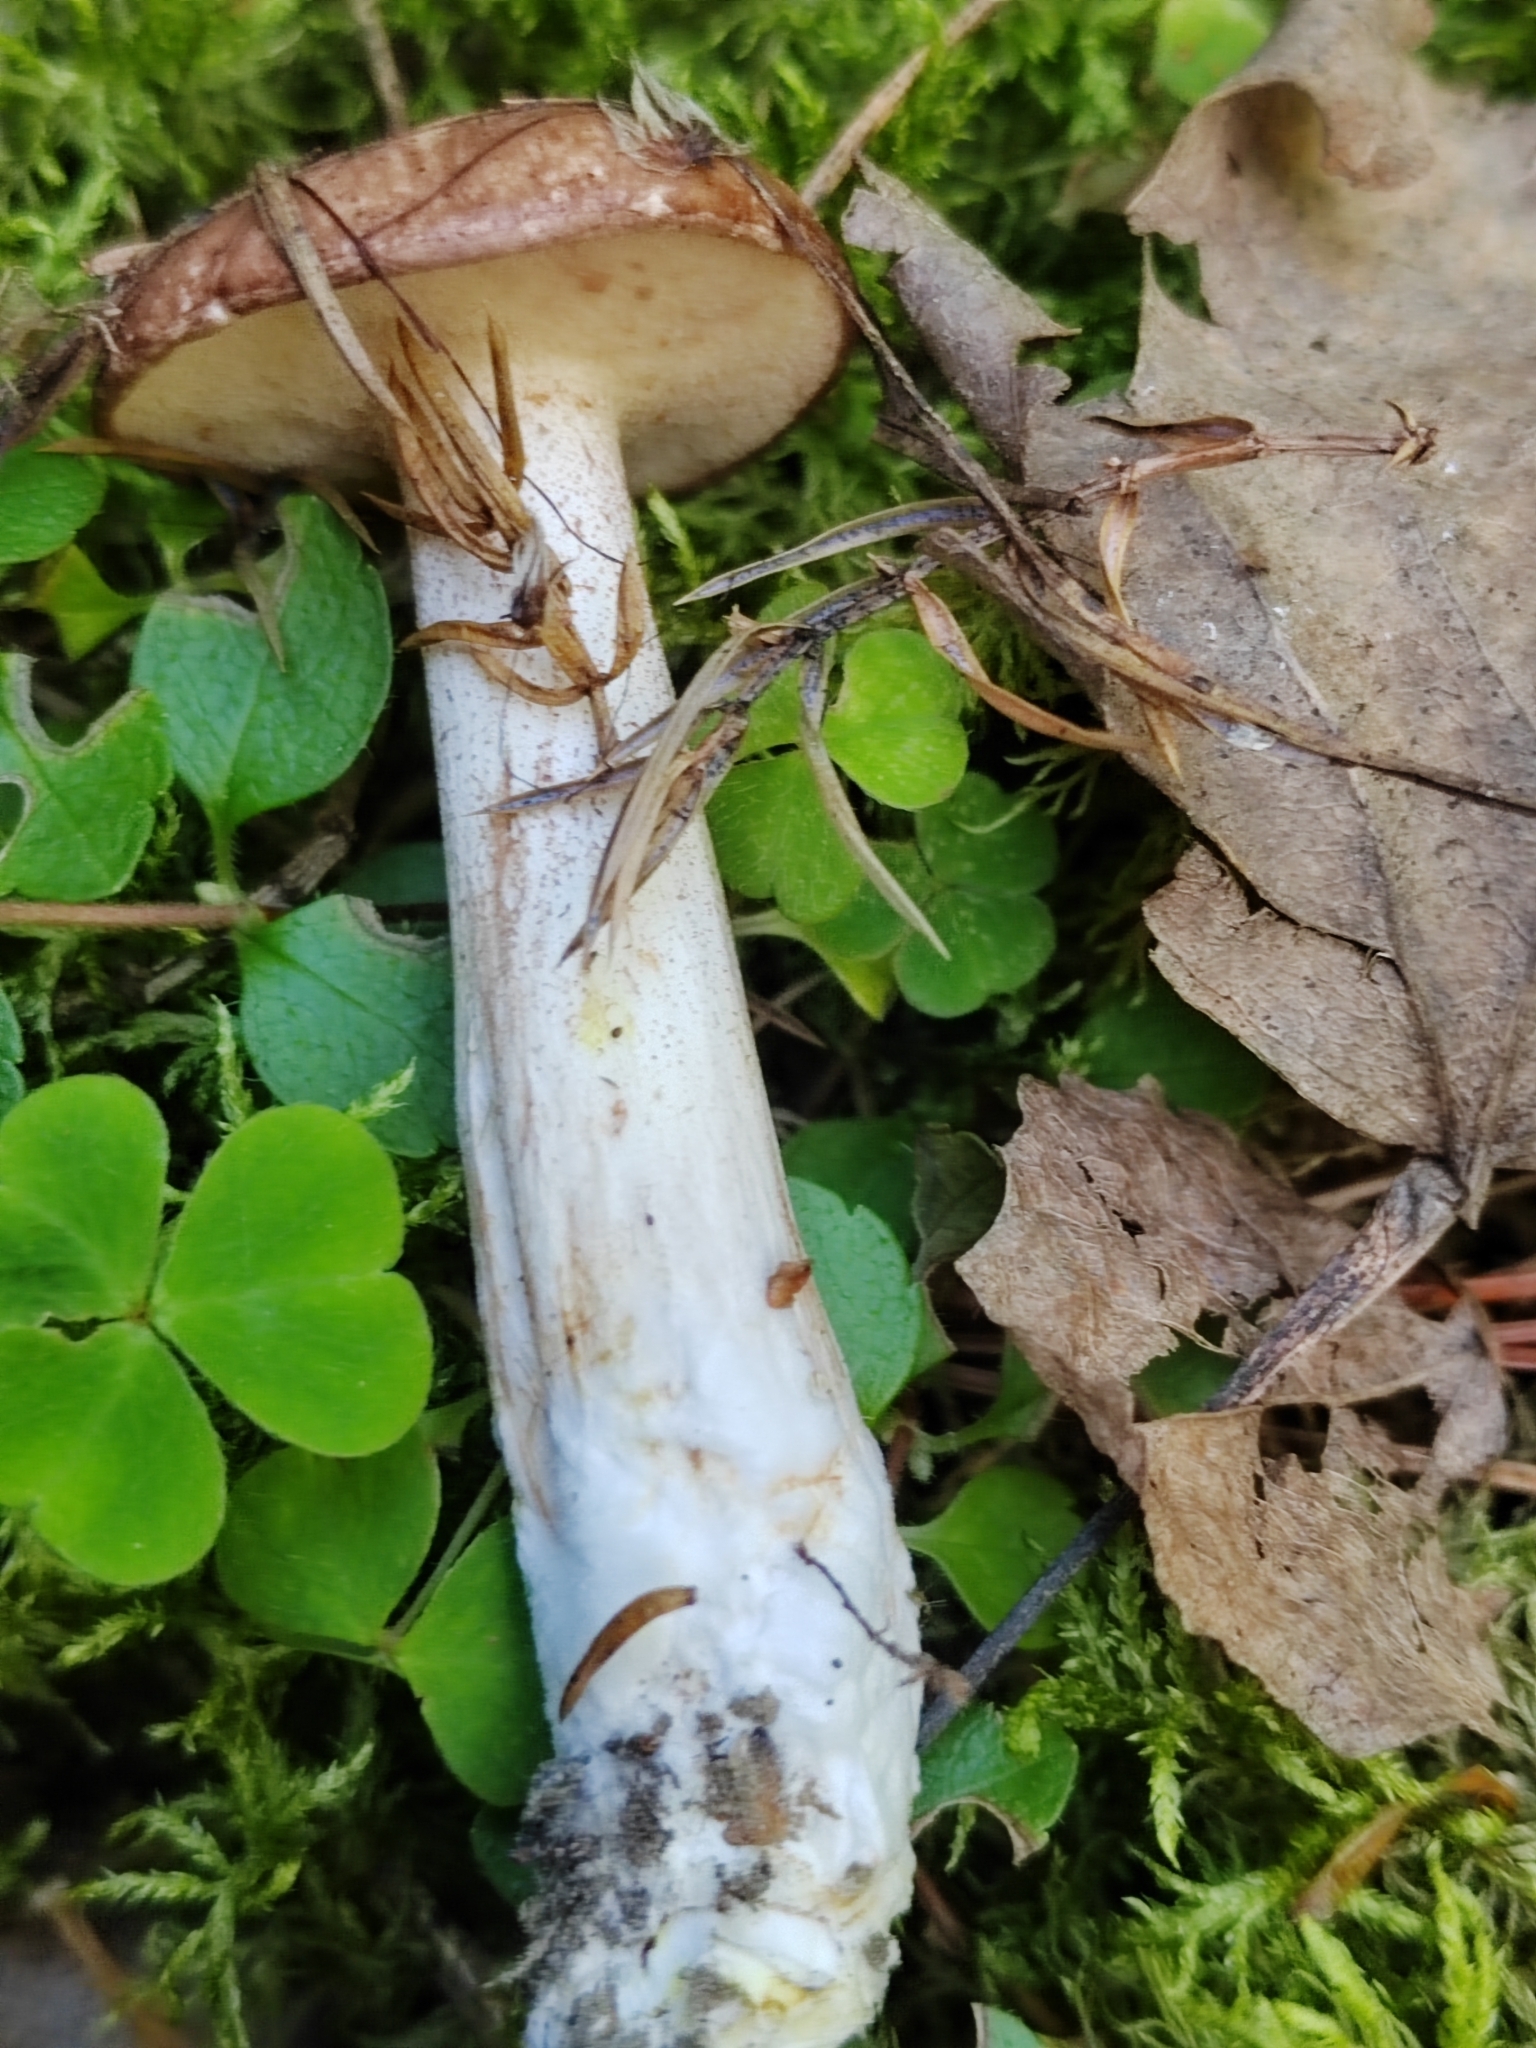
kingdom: Fungi
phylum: Basidiomycota
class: Agaricomycetes
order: Boletales
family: Suillaceae
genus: Suillus
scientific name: Suillus placidus
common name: Slippery white bolete
